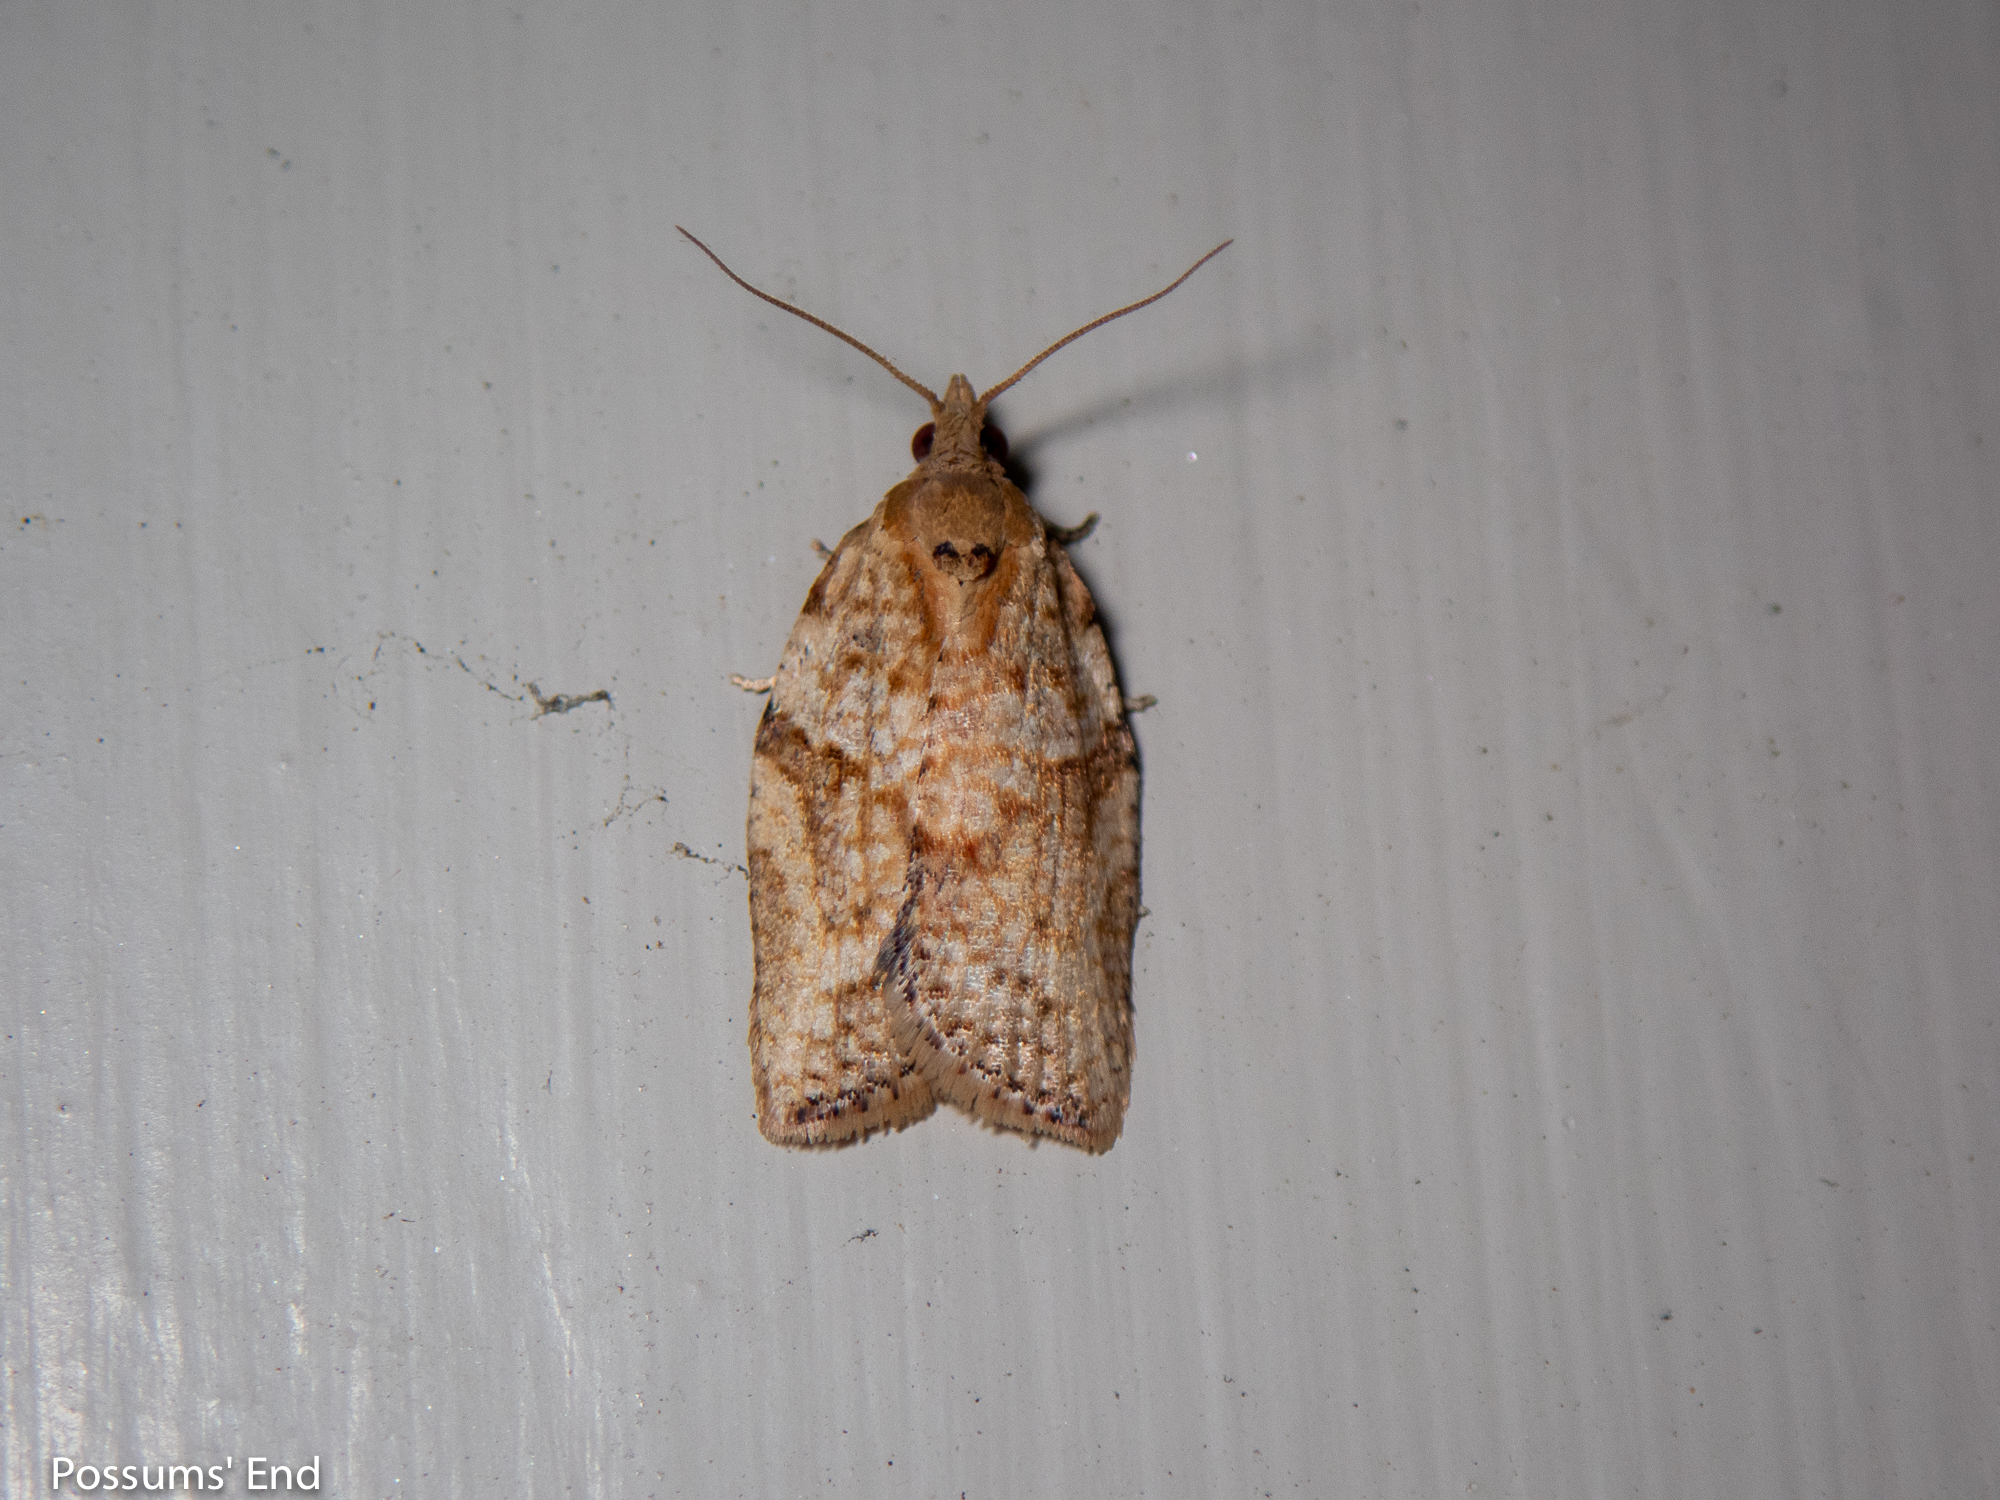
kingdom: Animalia
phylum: Arthropoda
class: Insecta
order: Lepidoptera
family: Tortricidae
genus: Epiphyas
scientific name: Epiphyas postvittana
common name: Light brown apple moth
